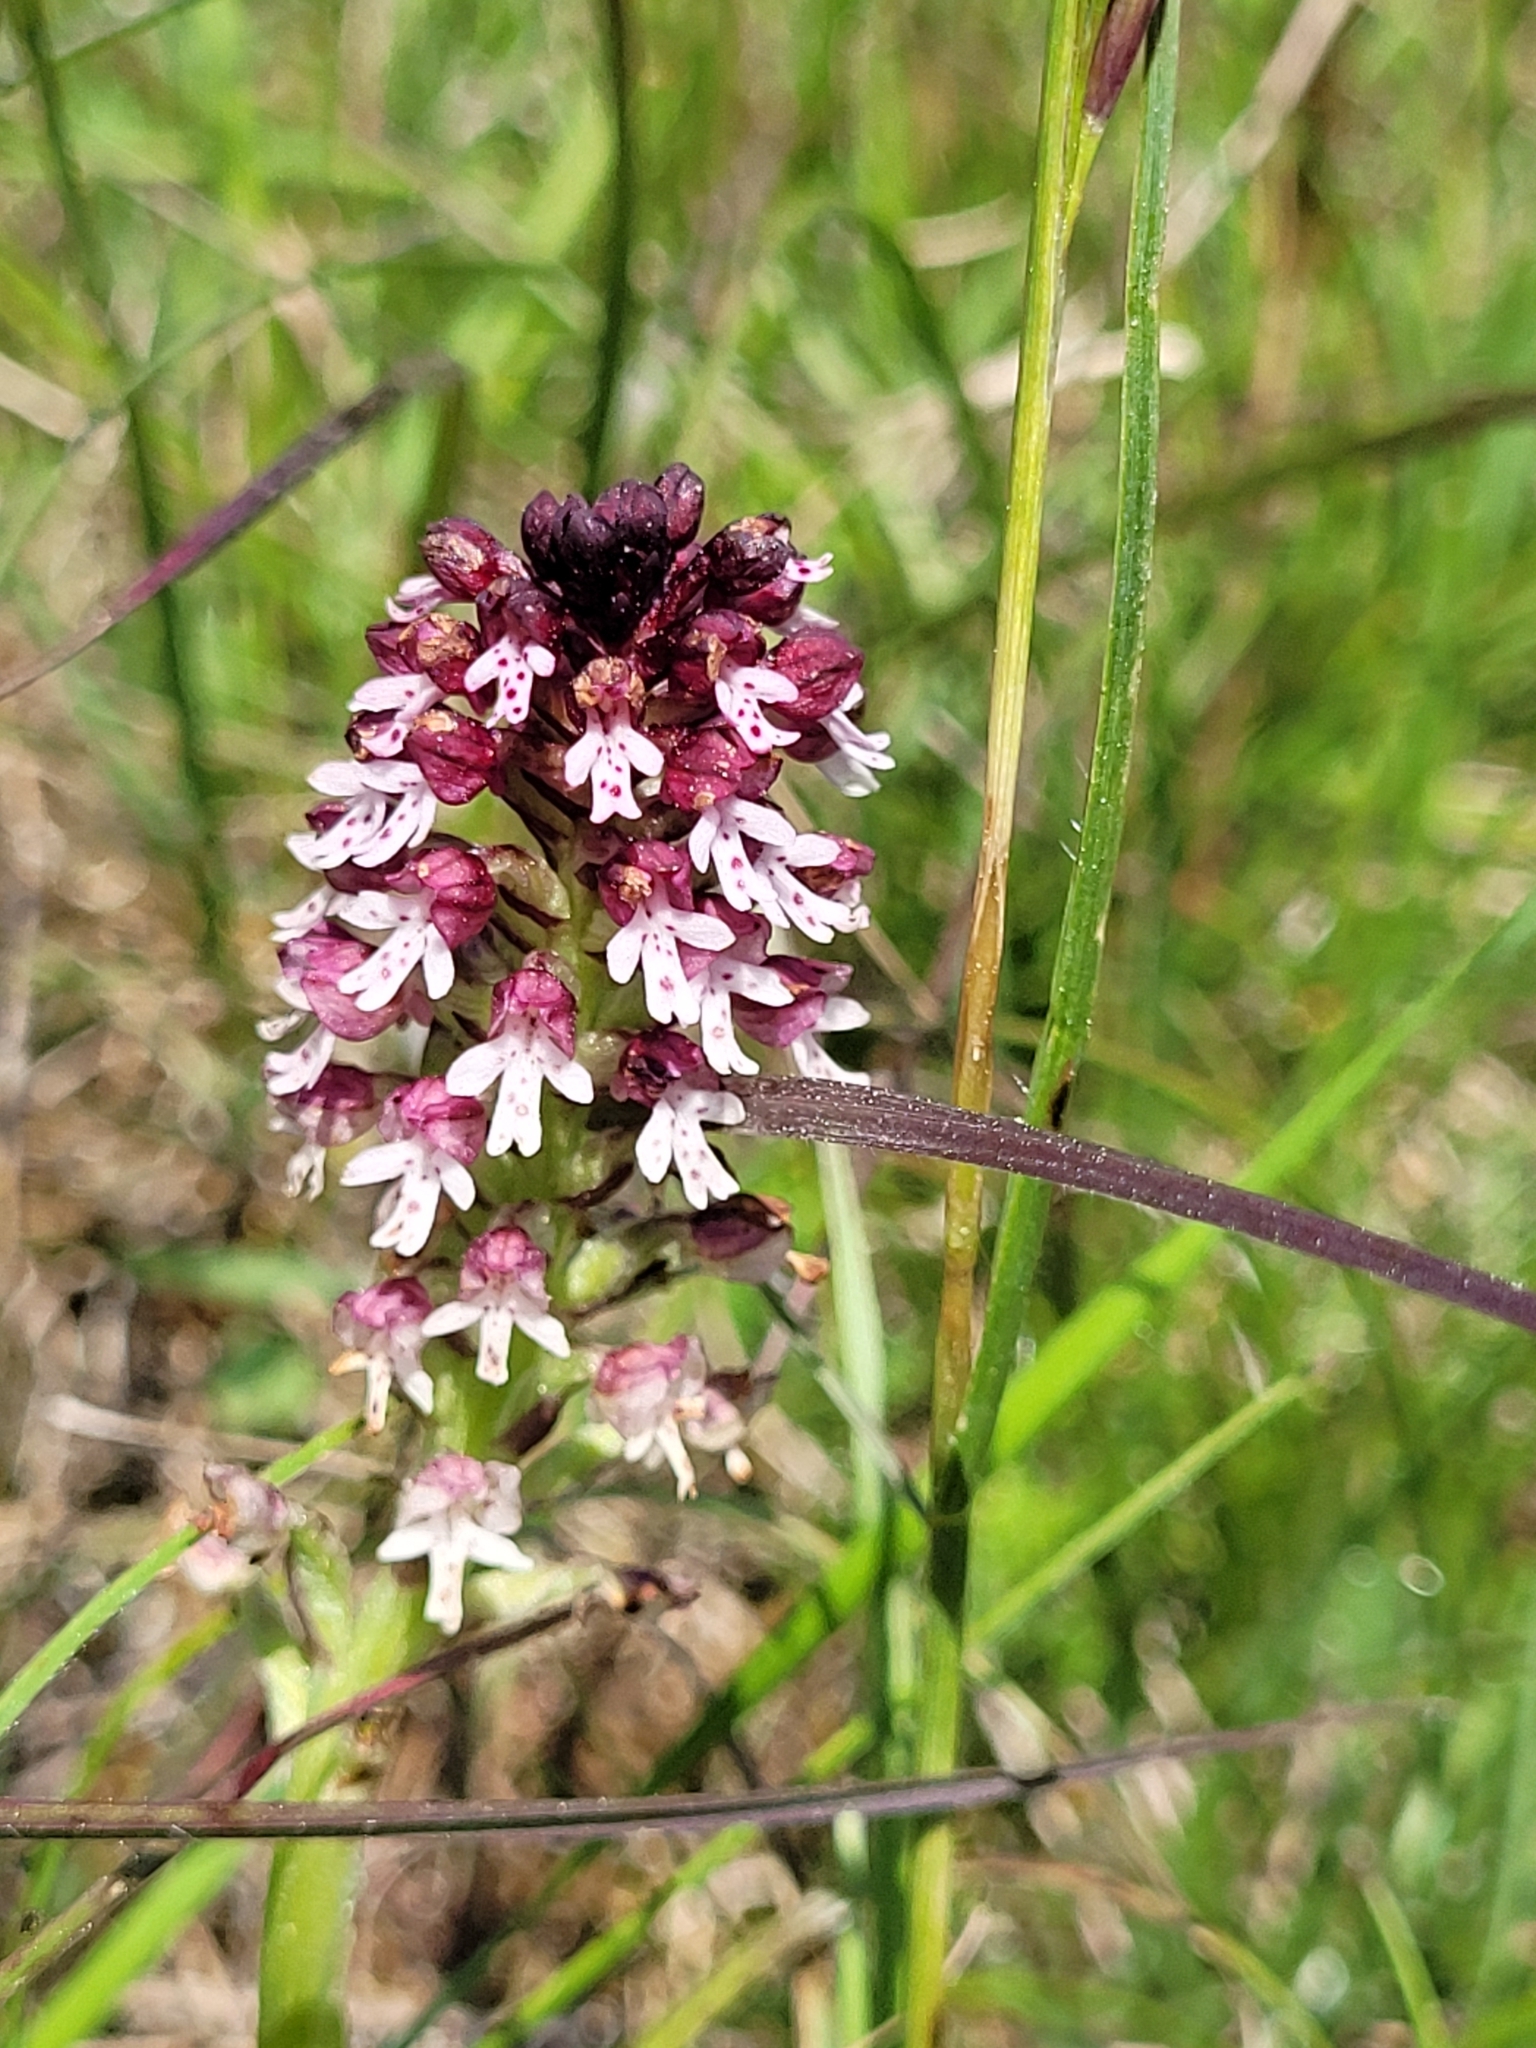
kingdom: Plantae
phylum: Tracheophyta
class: Liliopsida
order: Asparagales
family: Orchidaceae
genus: Neotinea
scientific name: Neotinea ustulata
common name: Burnt orchid
